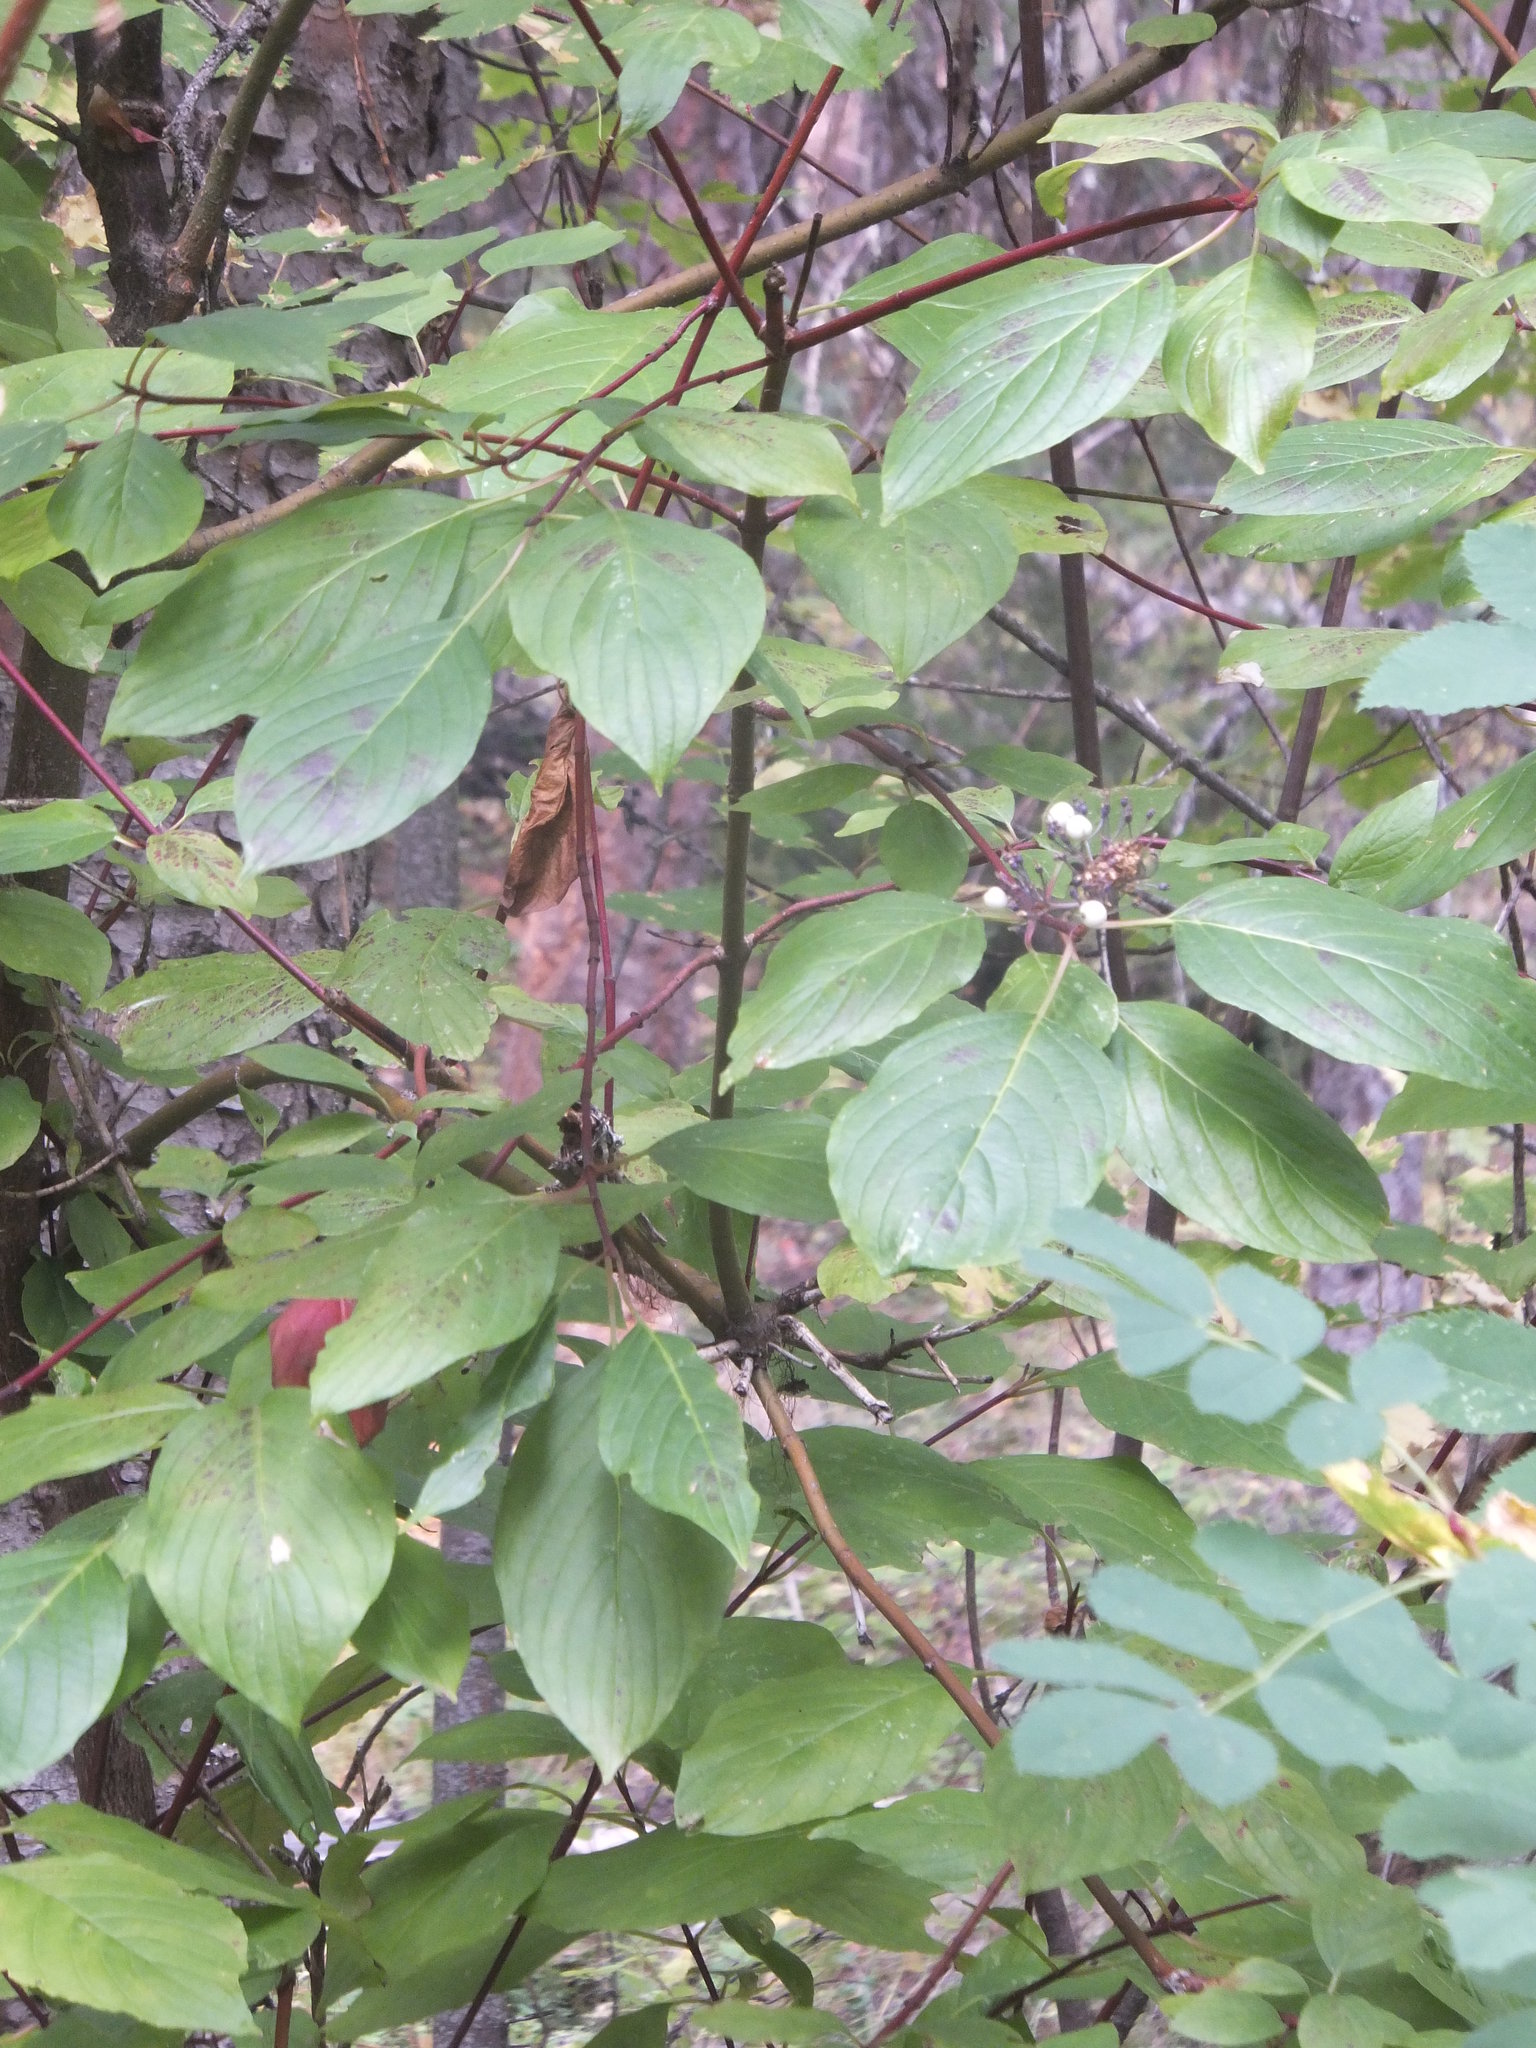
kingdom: Plantae
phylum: Tracheophyta
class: Magnoliopsida
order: Cornales
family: Cornaceae
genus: Cornus
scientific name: Cornus sericea
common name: Red-osier dogwood
